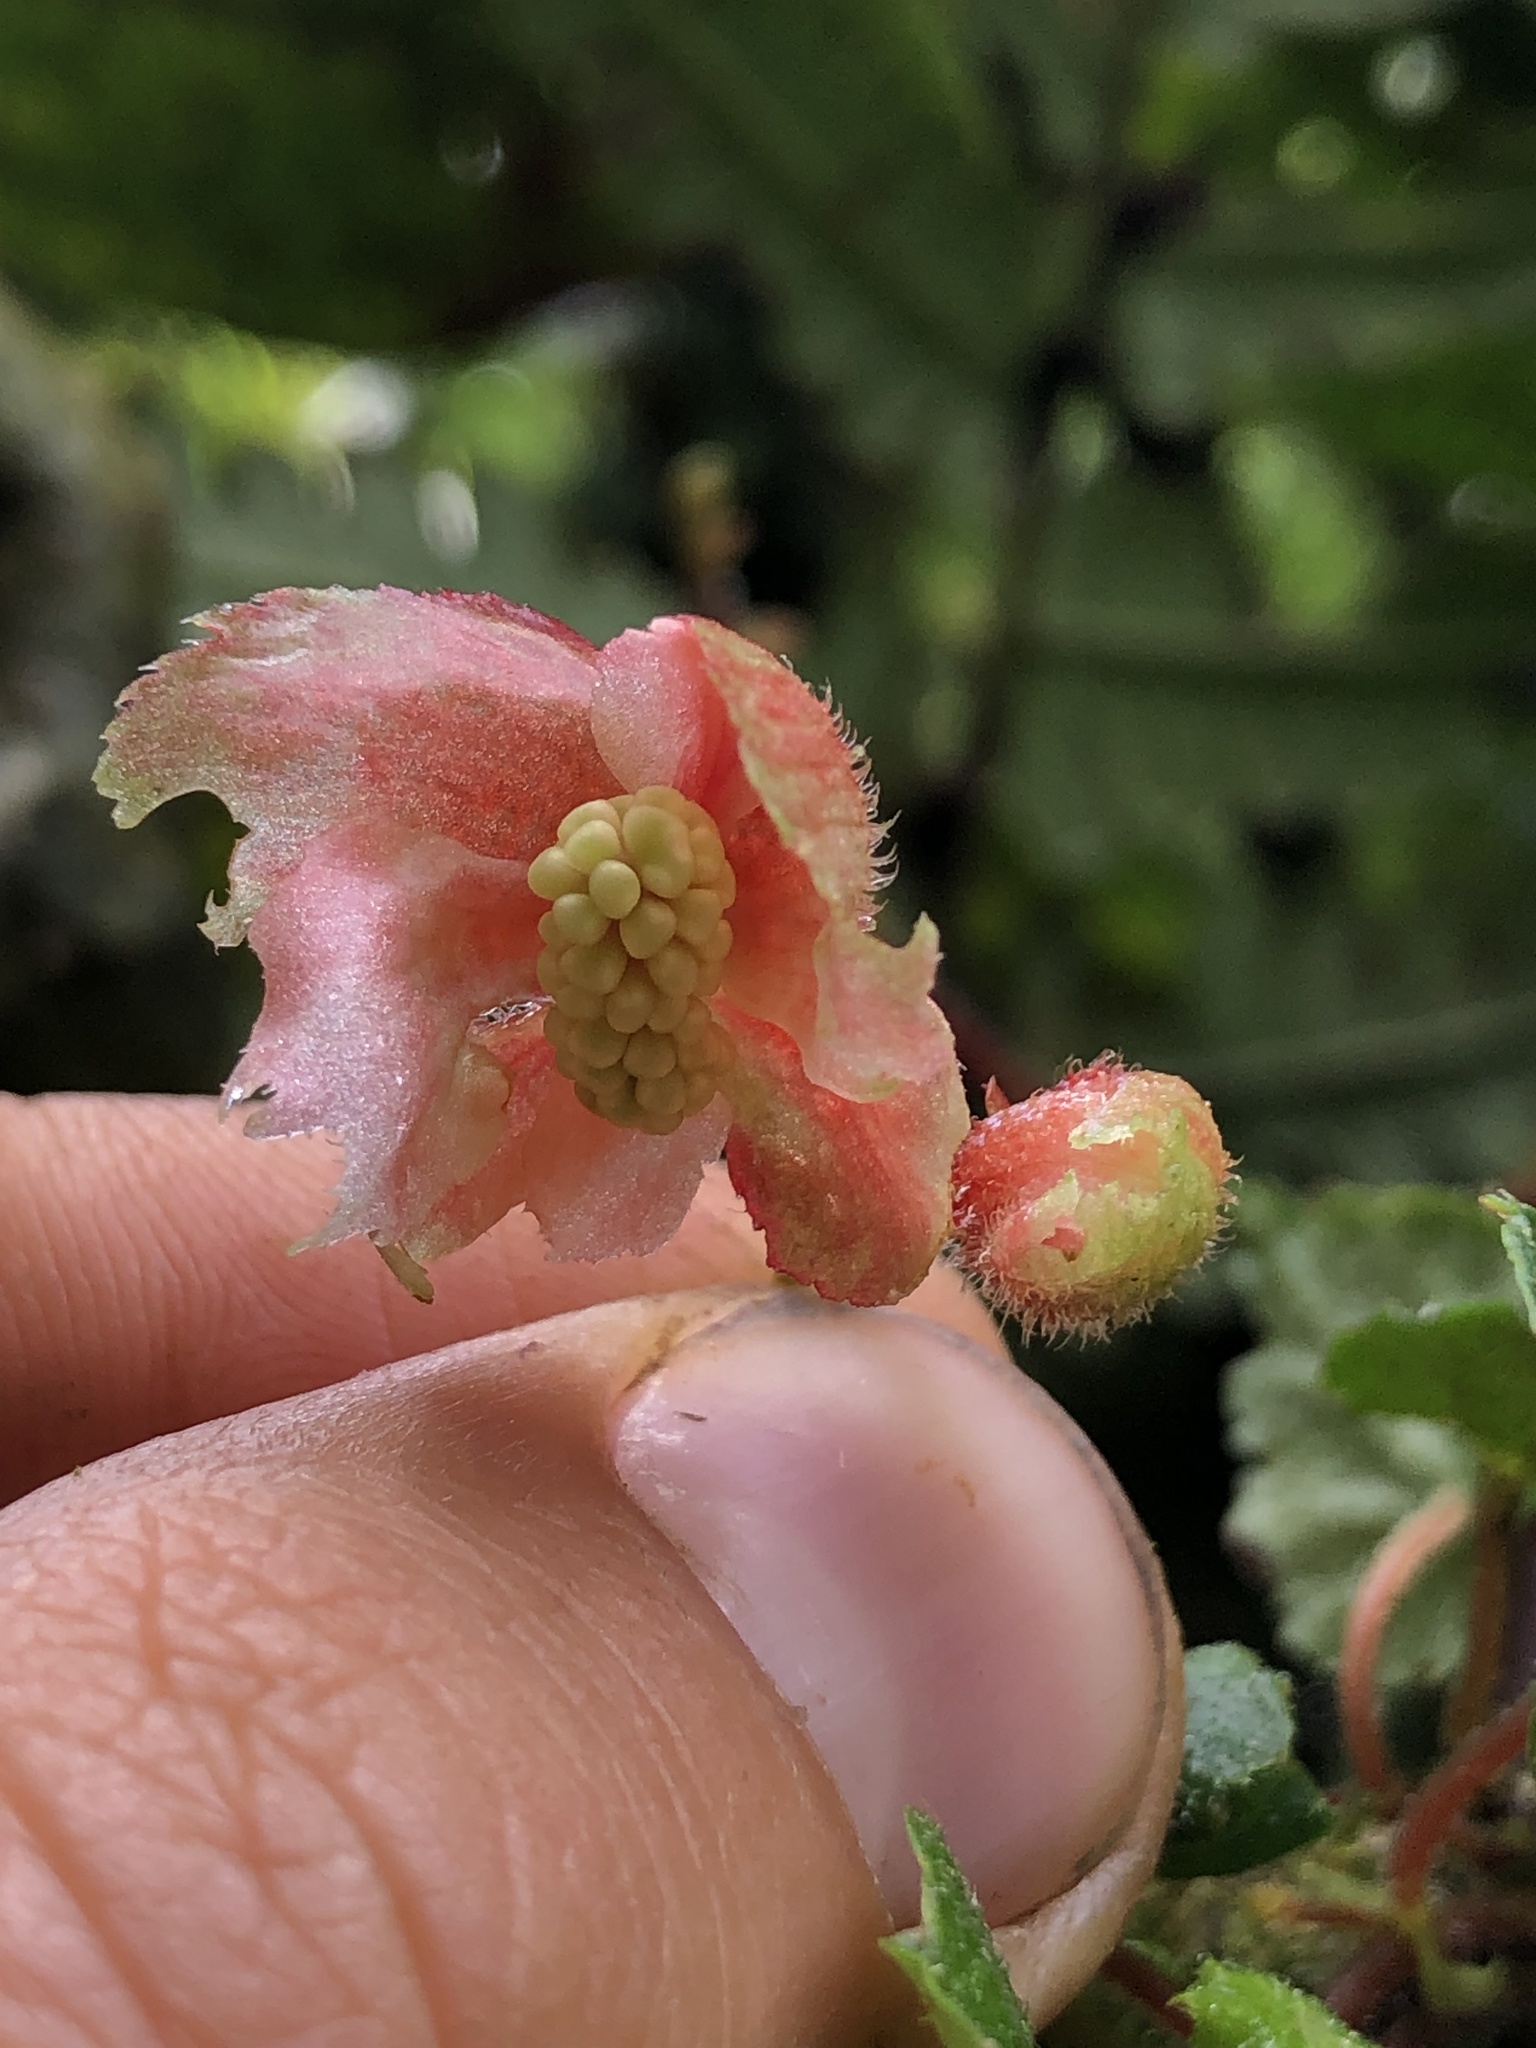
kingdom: Plantae
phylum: Tracheophyta
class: Magnoliopsida
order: Cucurbitales
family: Begoniaceae
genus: Begonia
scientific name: Begonia maurandiae
